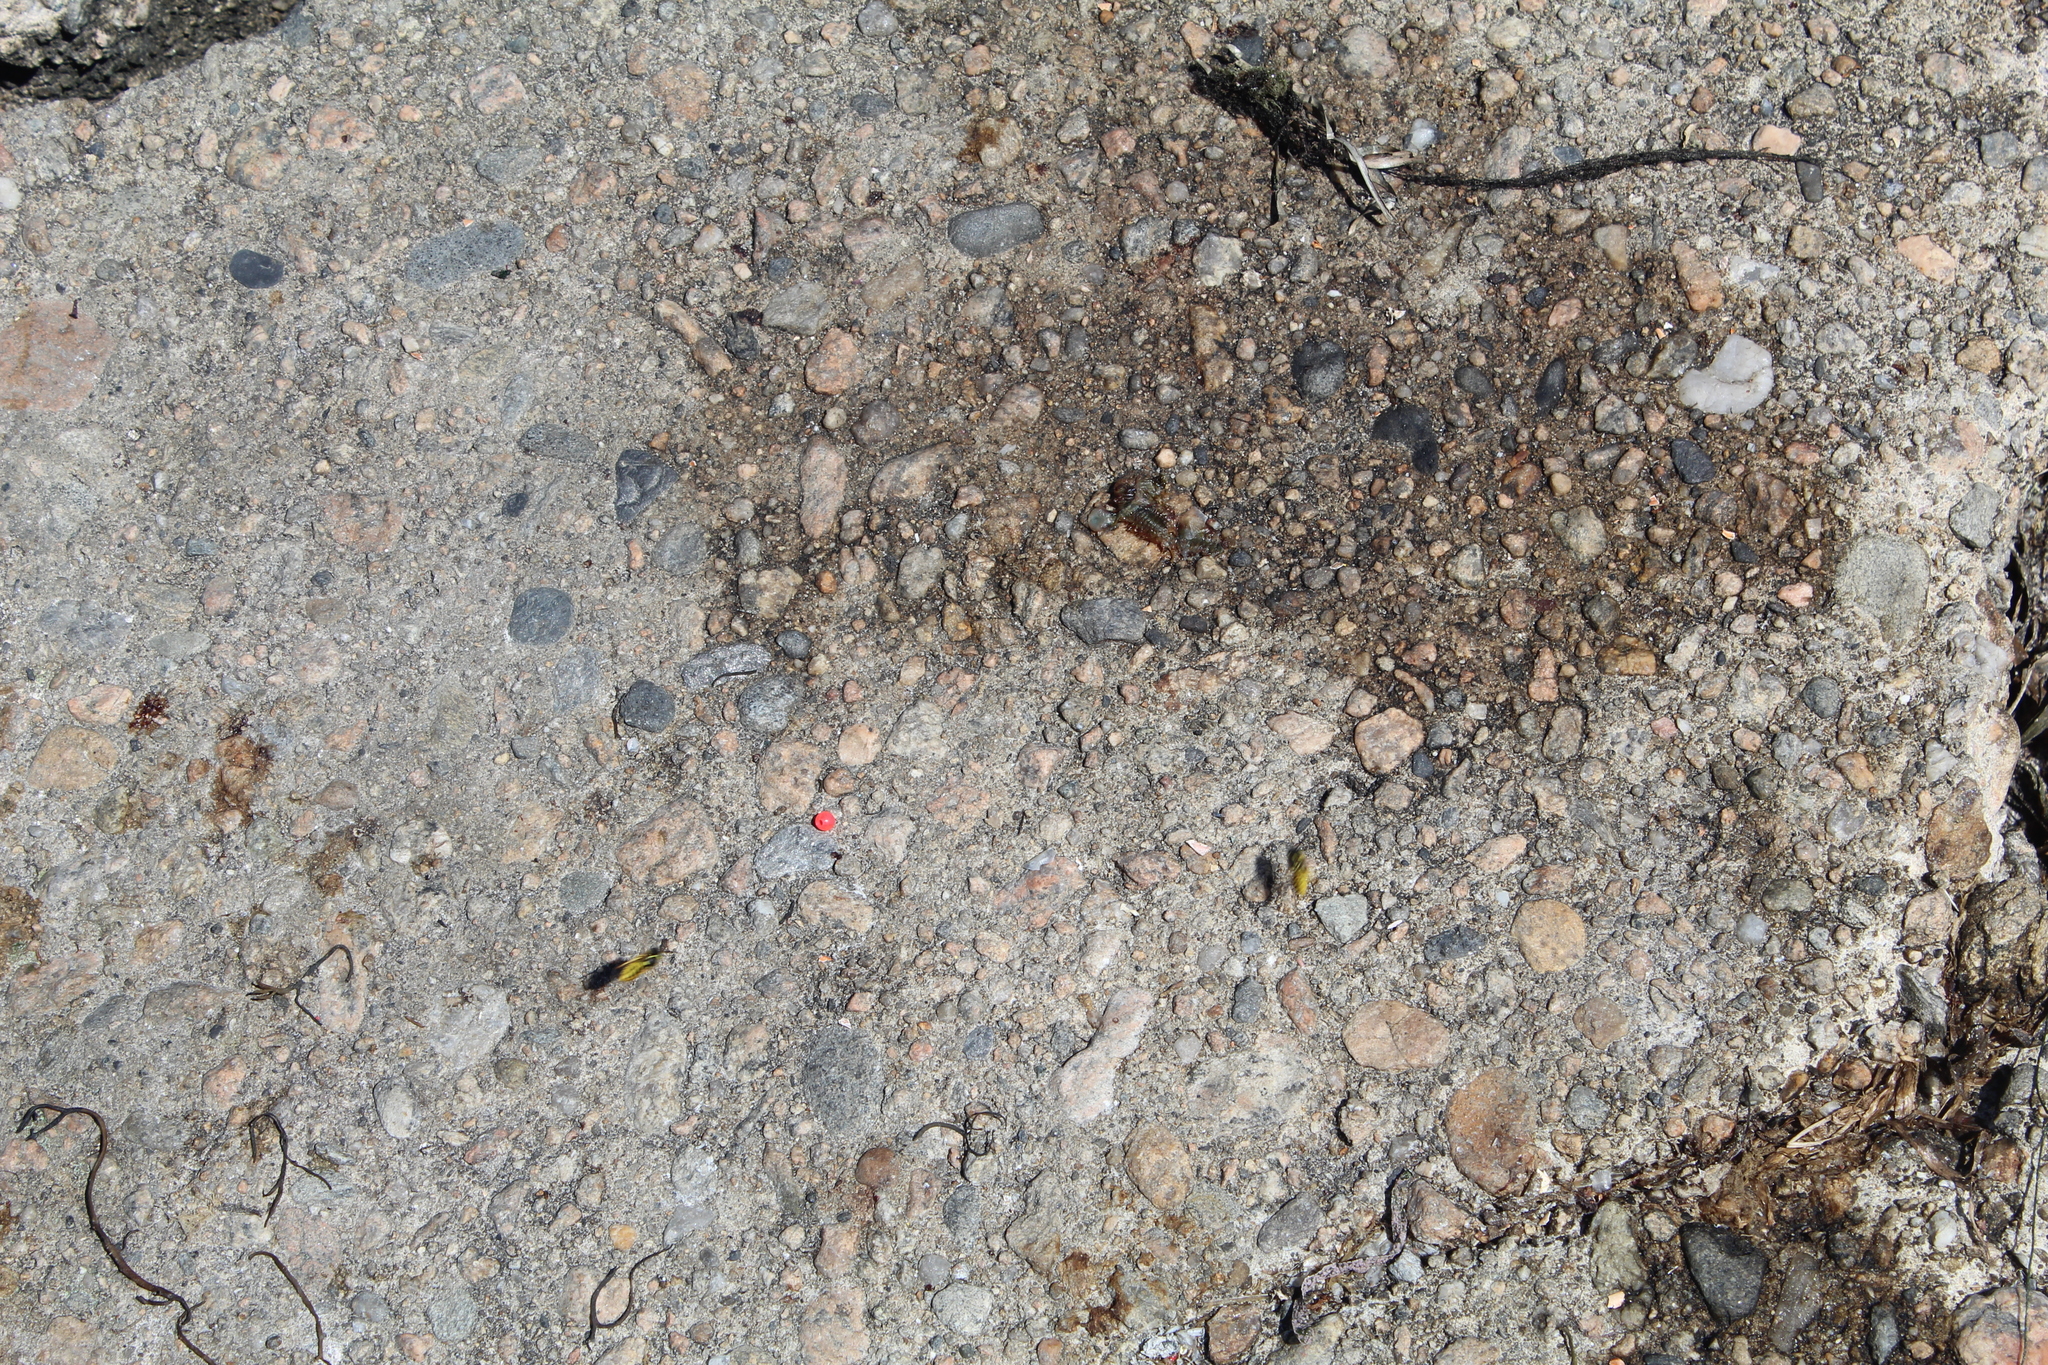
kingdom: Animalia
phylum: Arthropoda
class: Insecta
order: Hymenoptera
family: Vespidae
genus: Vespula
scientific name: Vespula
